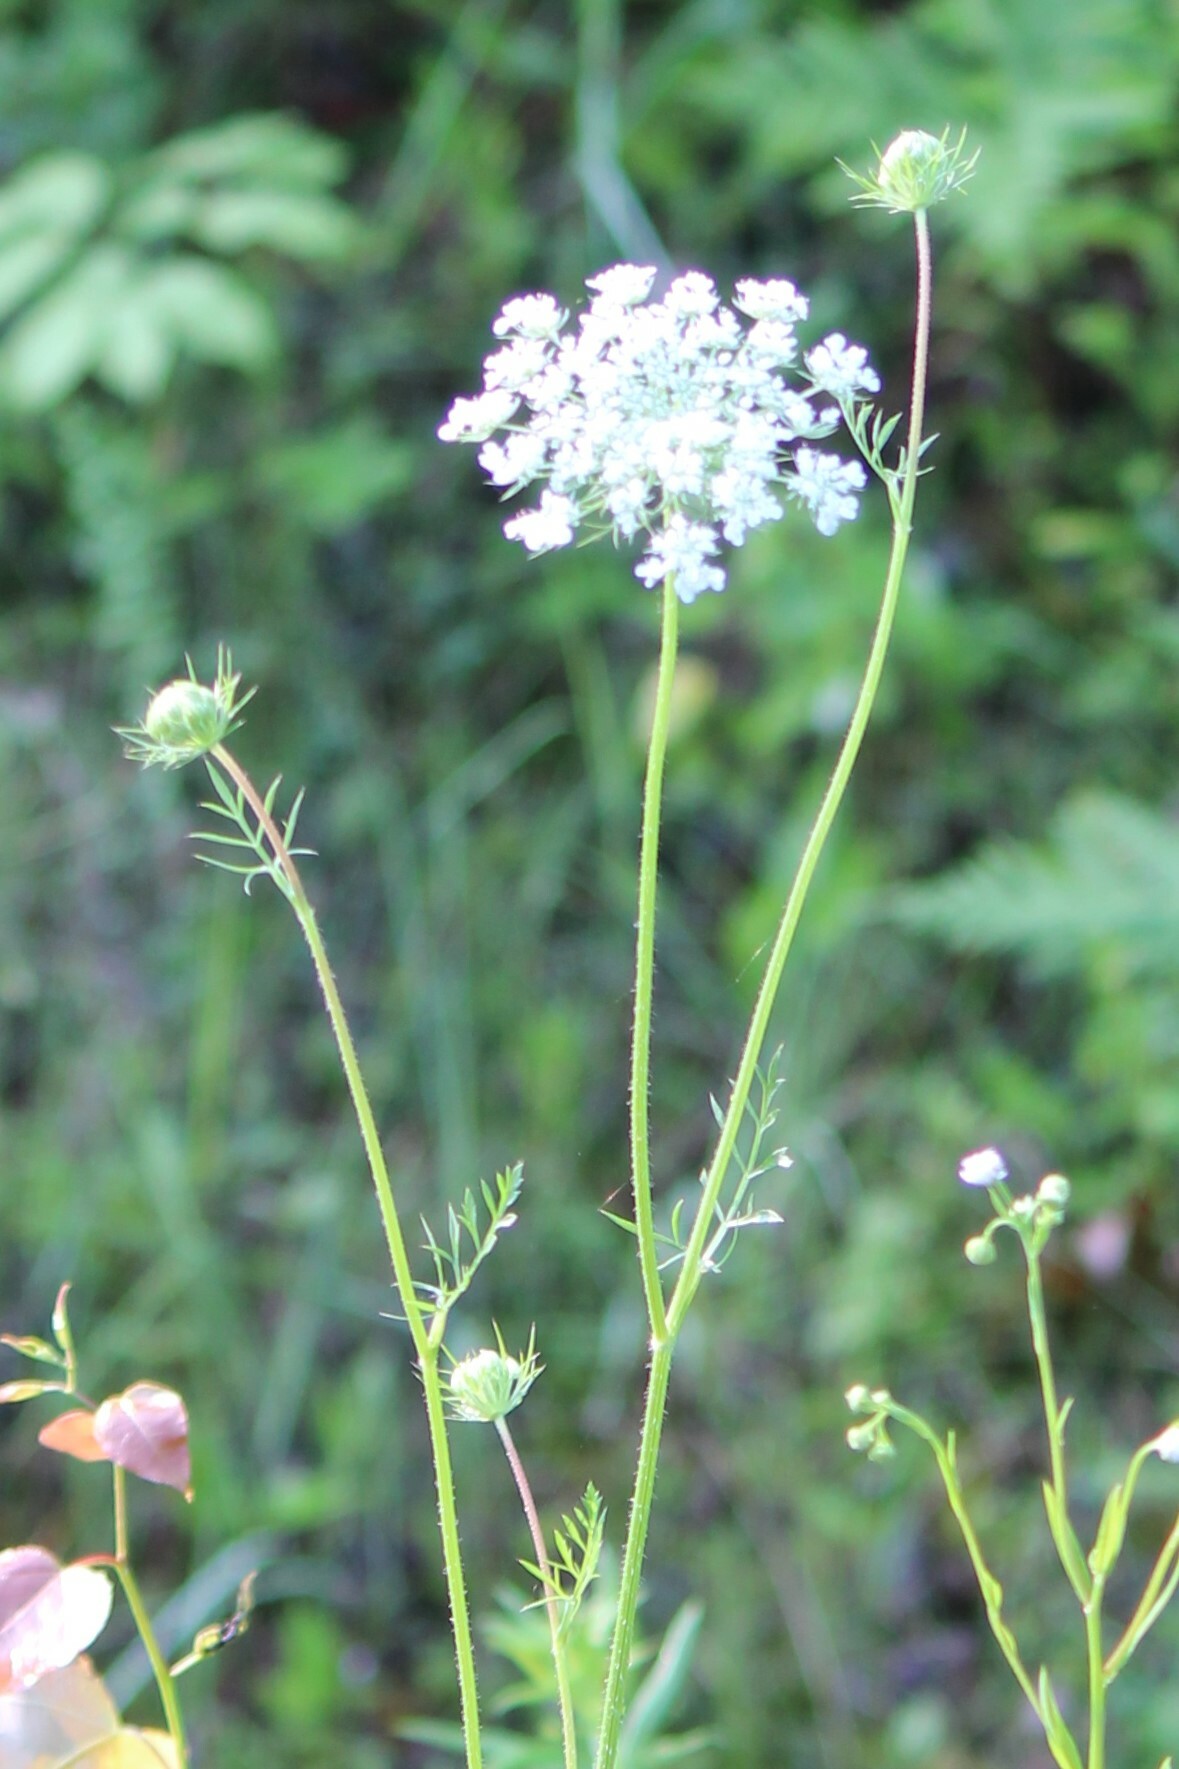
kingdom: Plantae
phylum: Tracheophyta
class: Magnoliopsida
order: Apiales
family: Apiaceae
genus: Daucus
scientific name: Daucus carota
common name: Wild carrot
